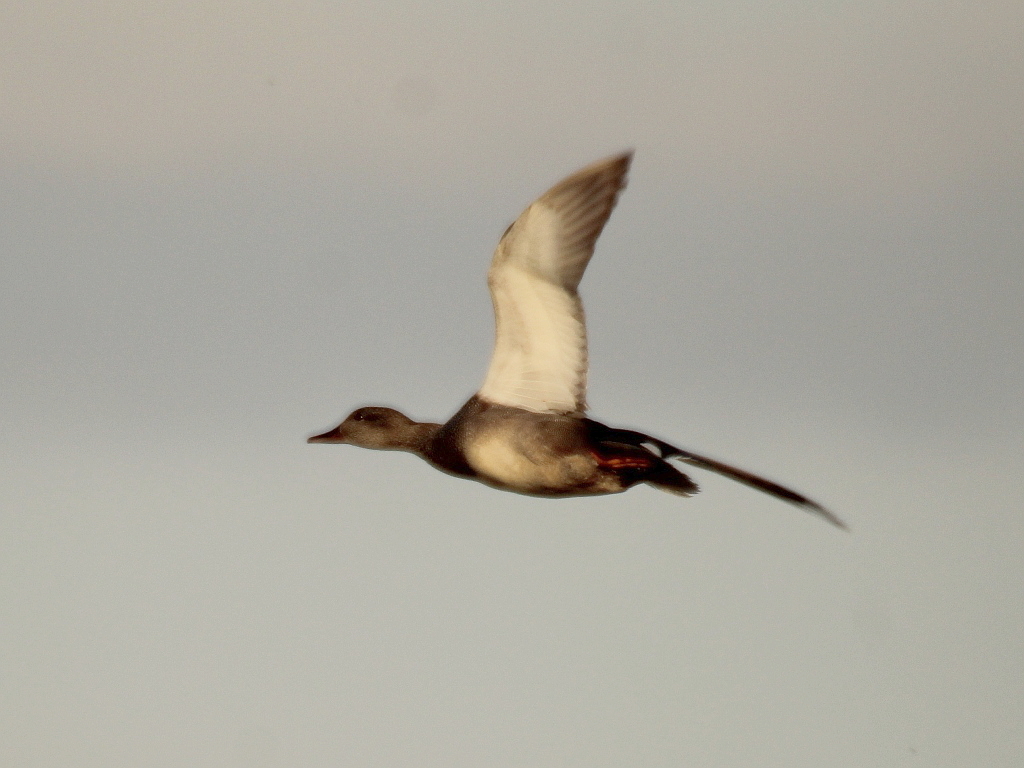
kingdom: Animalia
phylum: Chordata
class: Aves
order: Anseriformes
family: Anatidae
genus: Mareca
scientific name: Mareca strepera
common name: Gadwall
